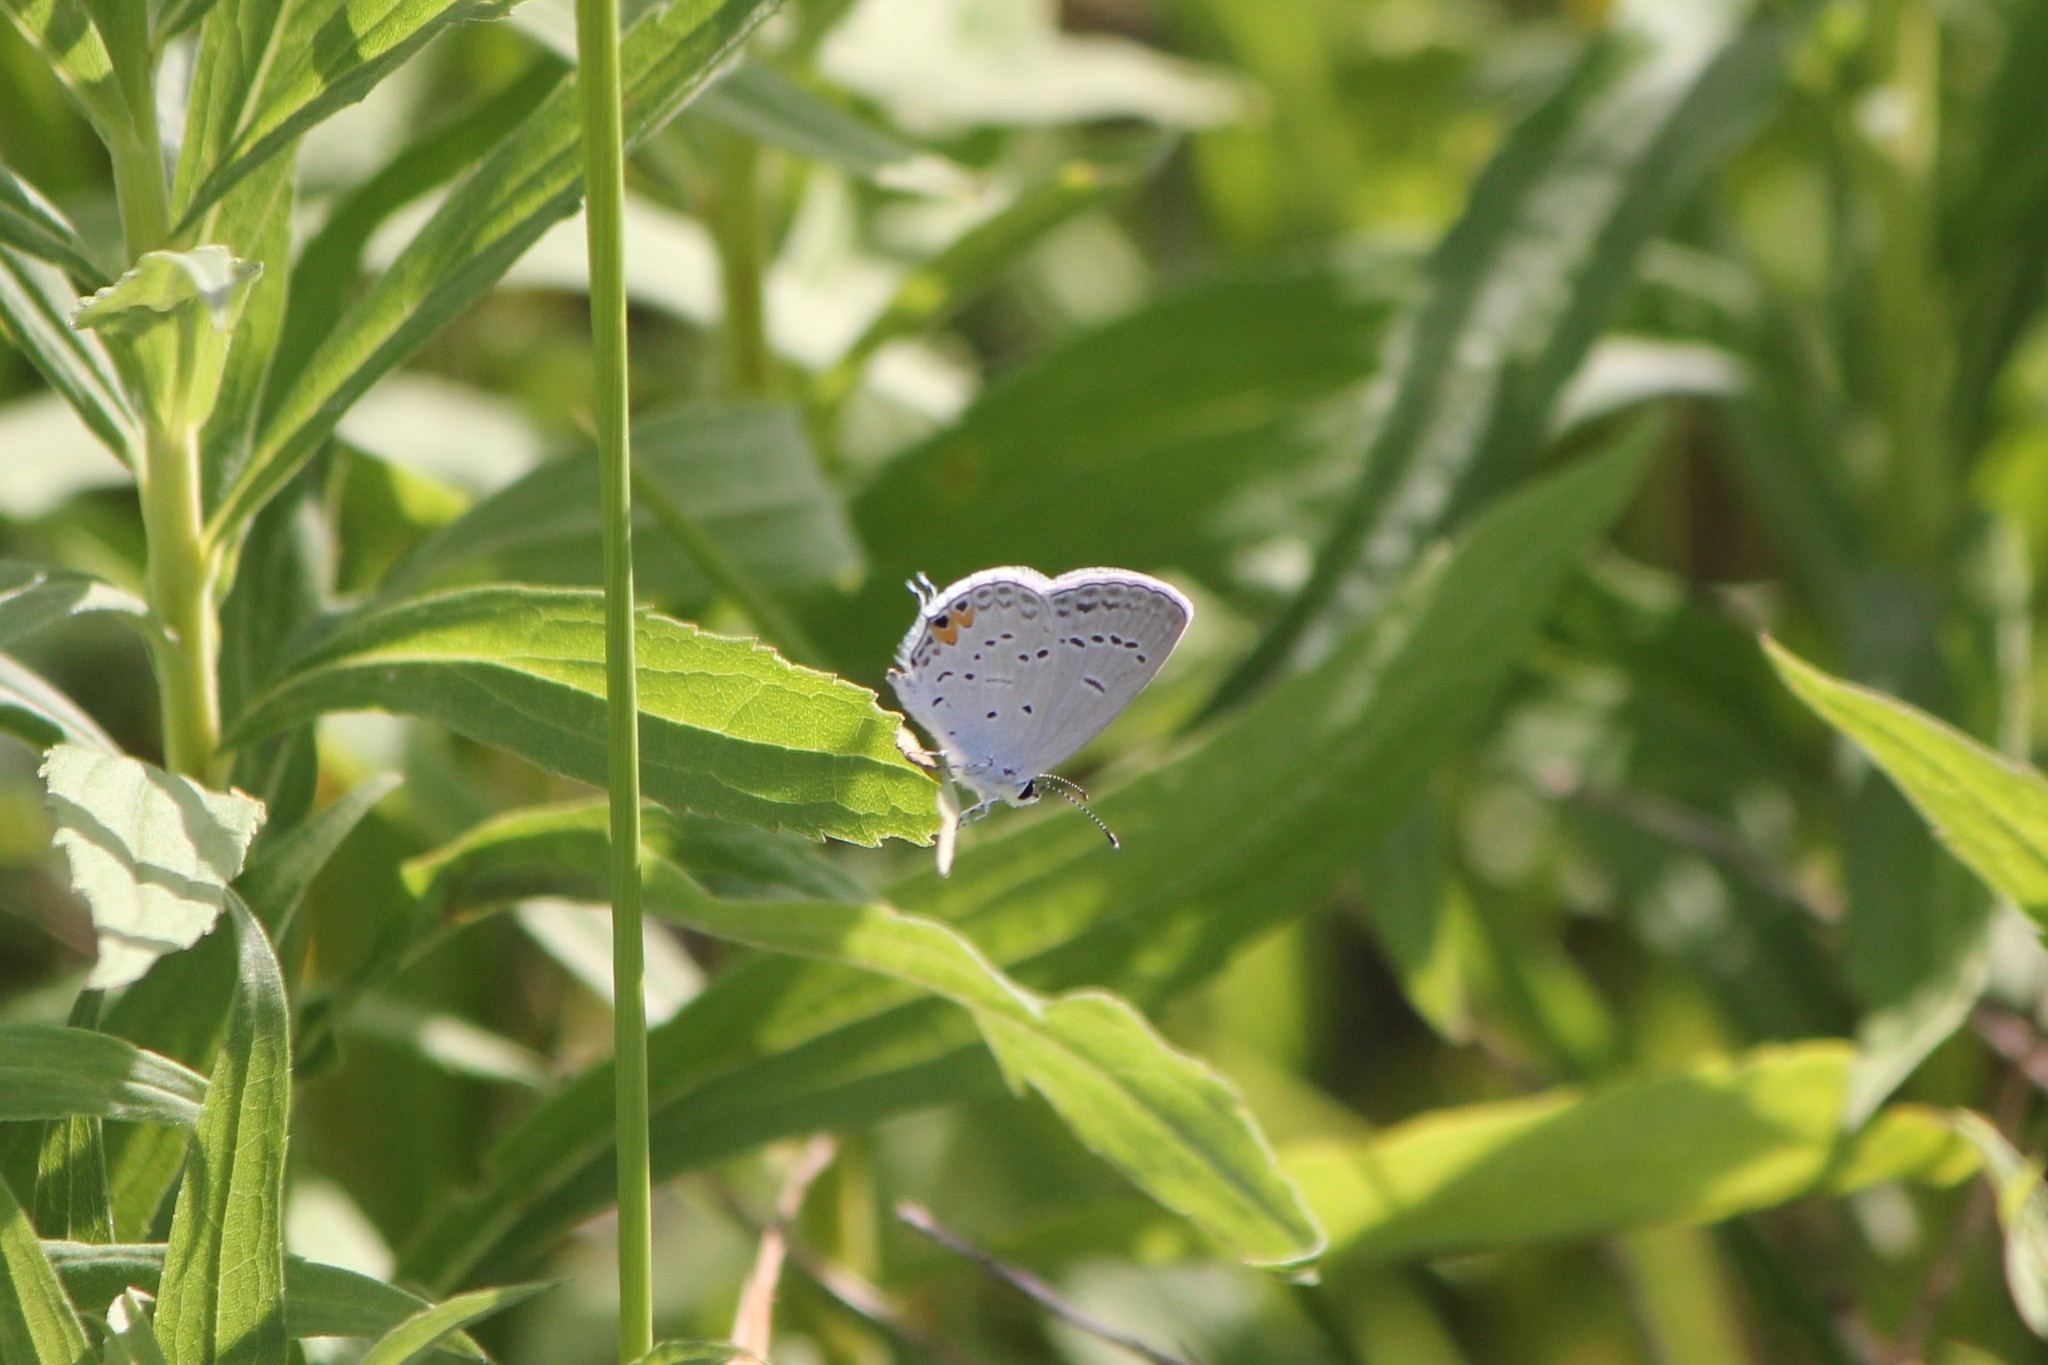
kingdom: Animalia
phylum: Arthropoda
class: Insecta
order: Lepidoptera
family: Lycaenidae
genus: Elkalyce
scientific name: Elkalyce comyntas
